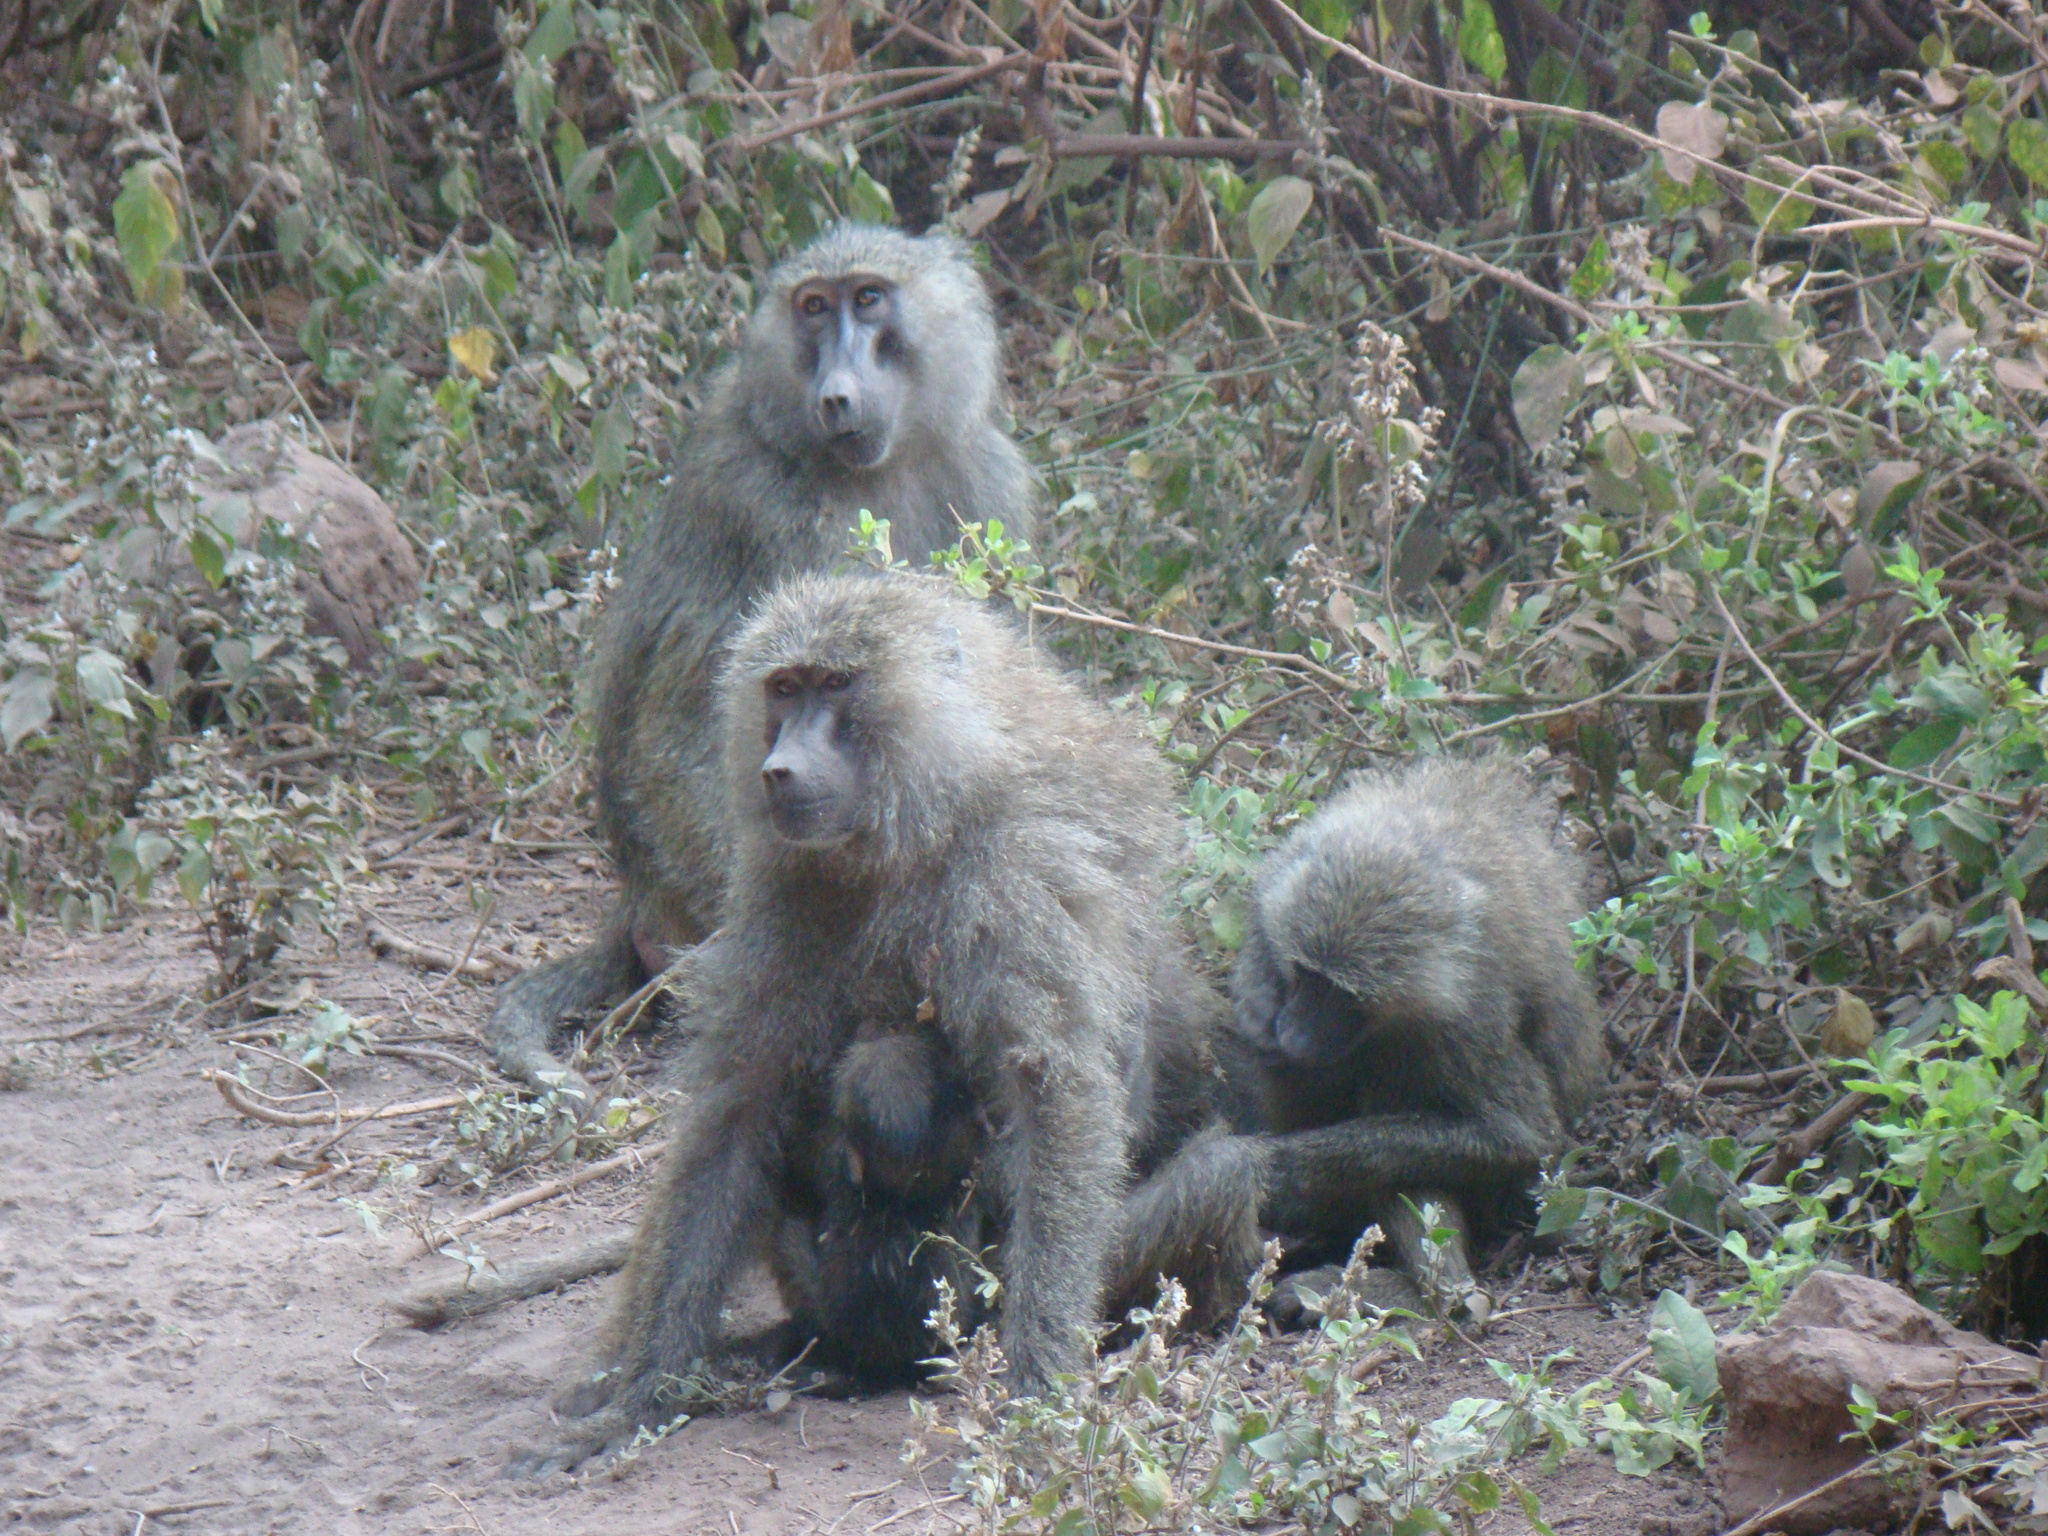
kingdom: Animalia
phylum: Chordata
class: Mammalia
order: Primates
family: Cercopithecidae
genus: Papio
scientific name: Papio anubis
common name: Olive baboon
